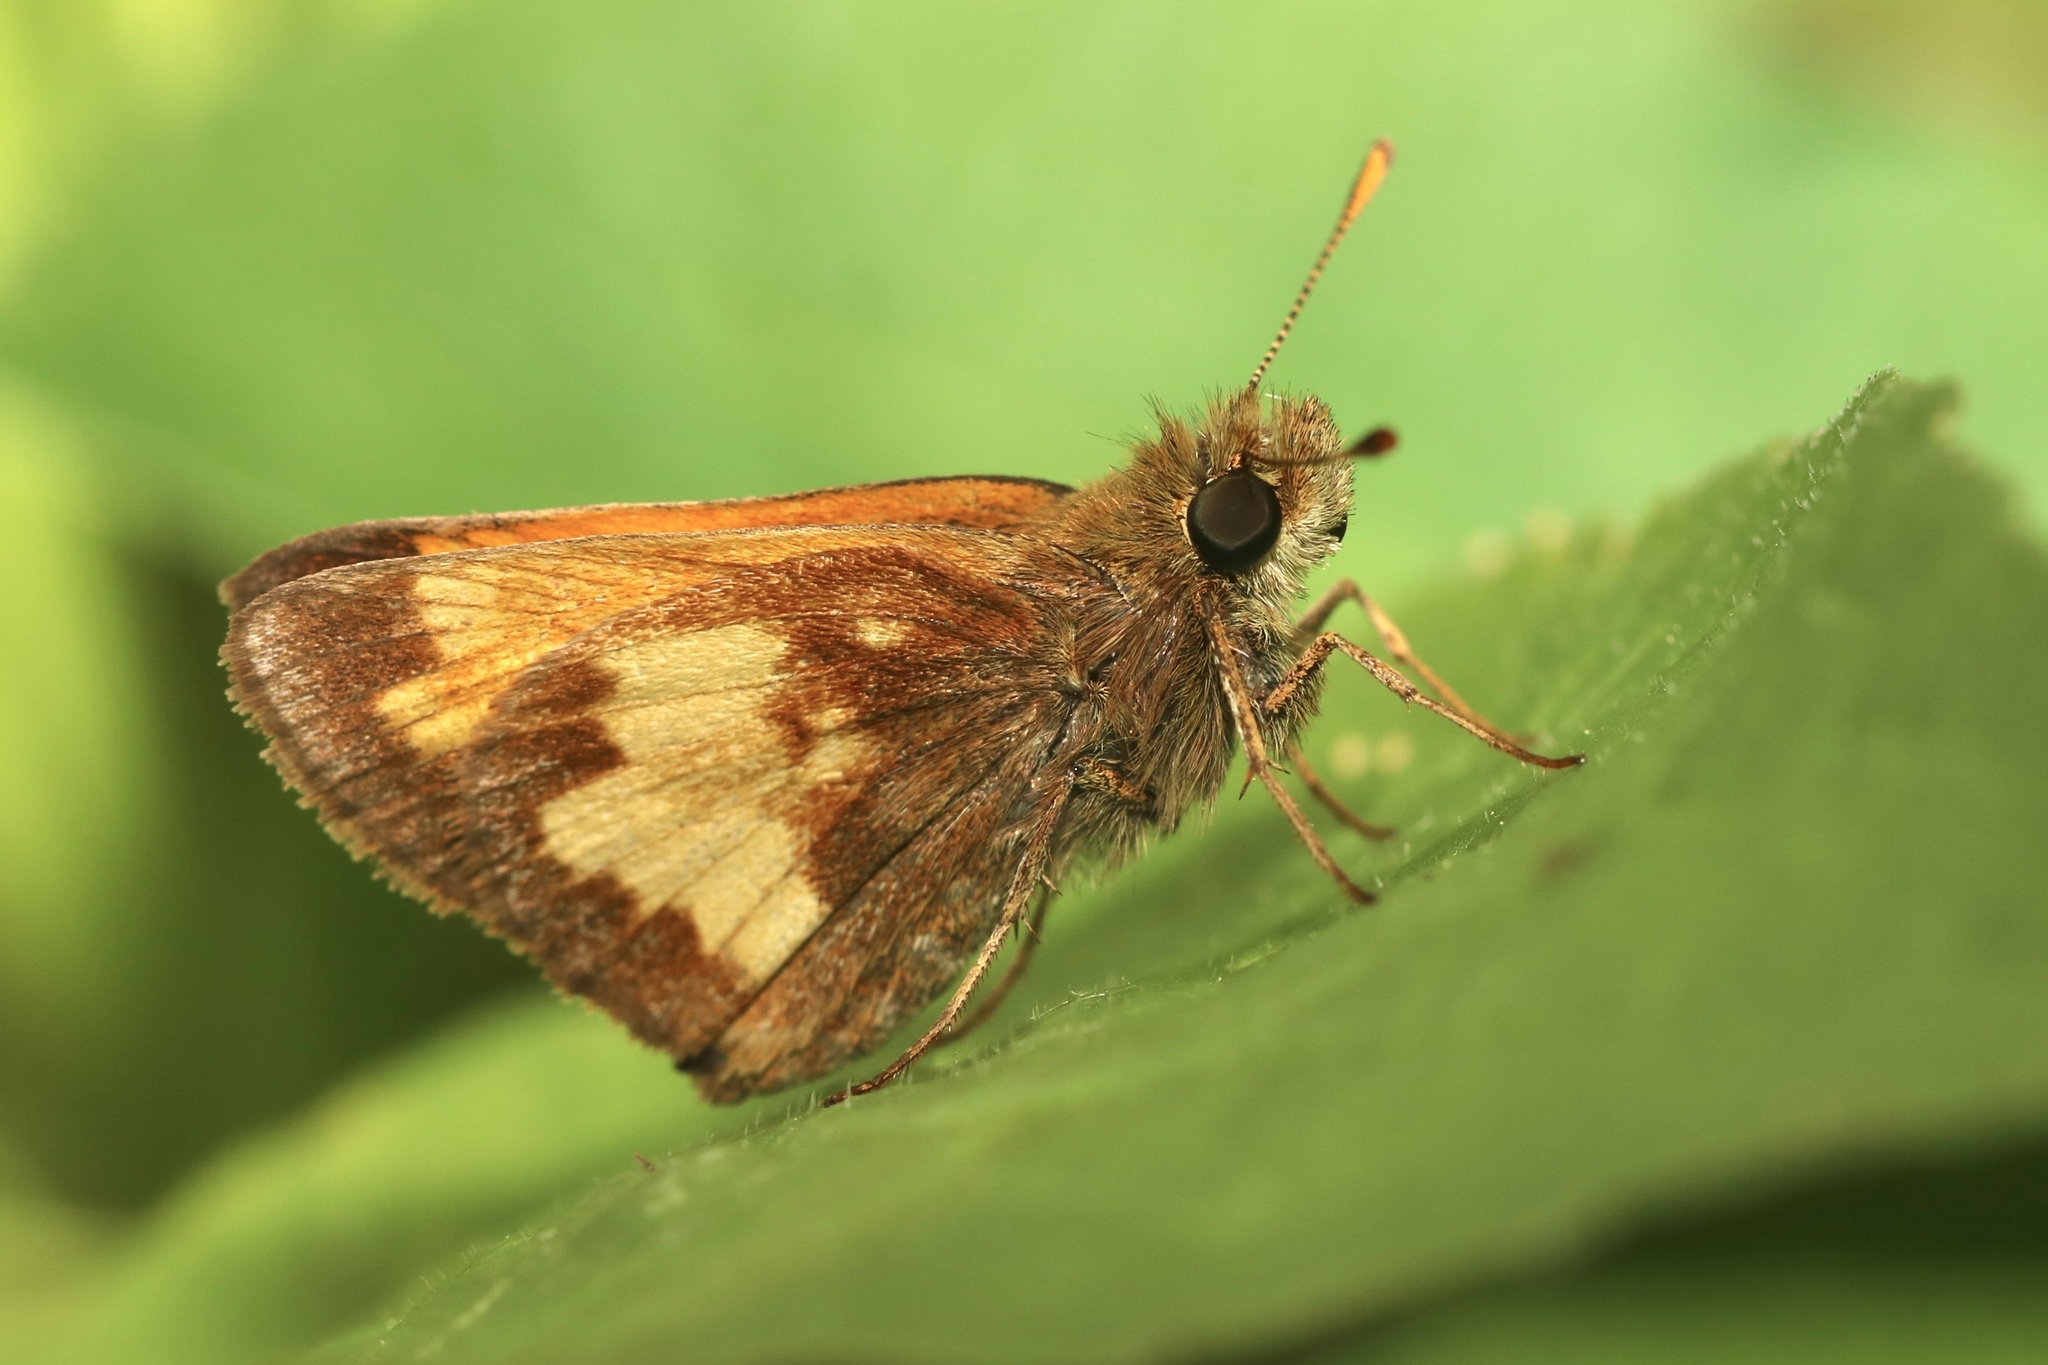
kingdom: Animalia
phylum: Arthropoda
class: Insecta
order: Lepidoptera
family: Hesperiidae
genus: Lon
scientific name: Lon hobomok
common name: Hobomok skipper
